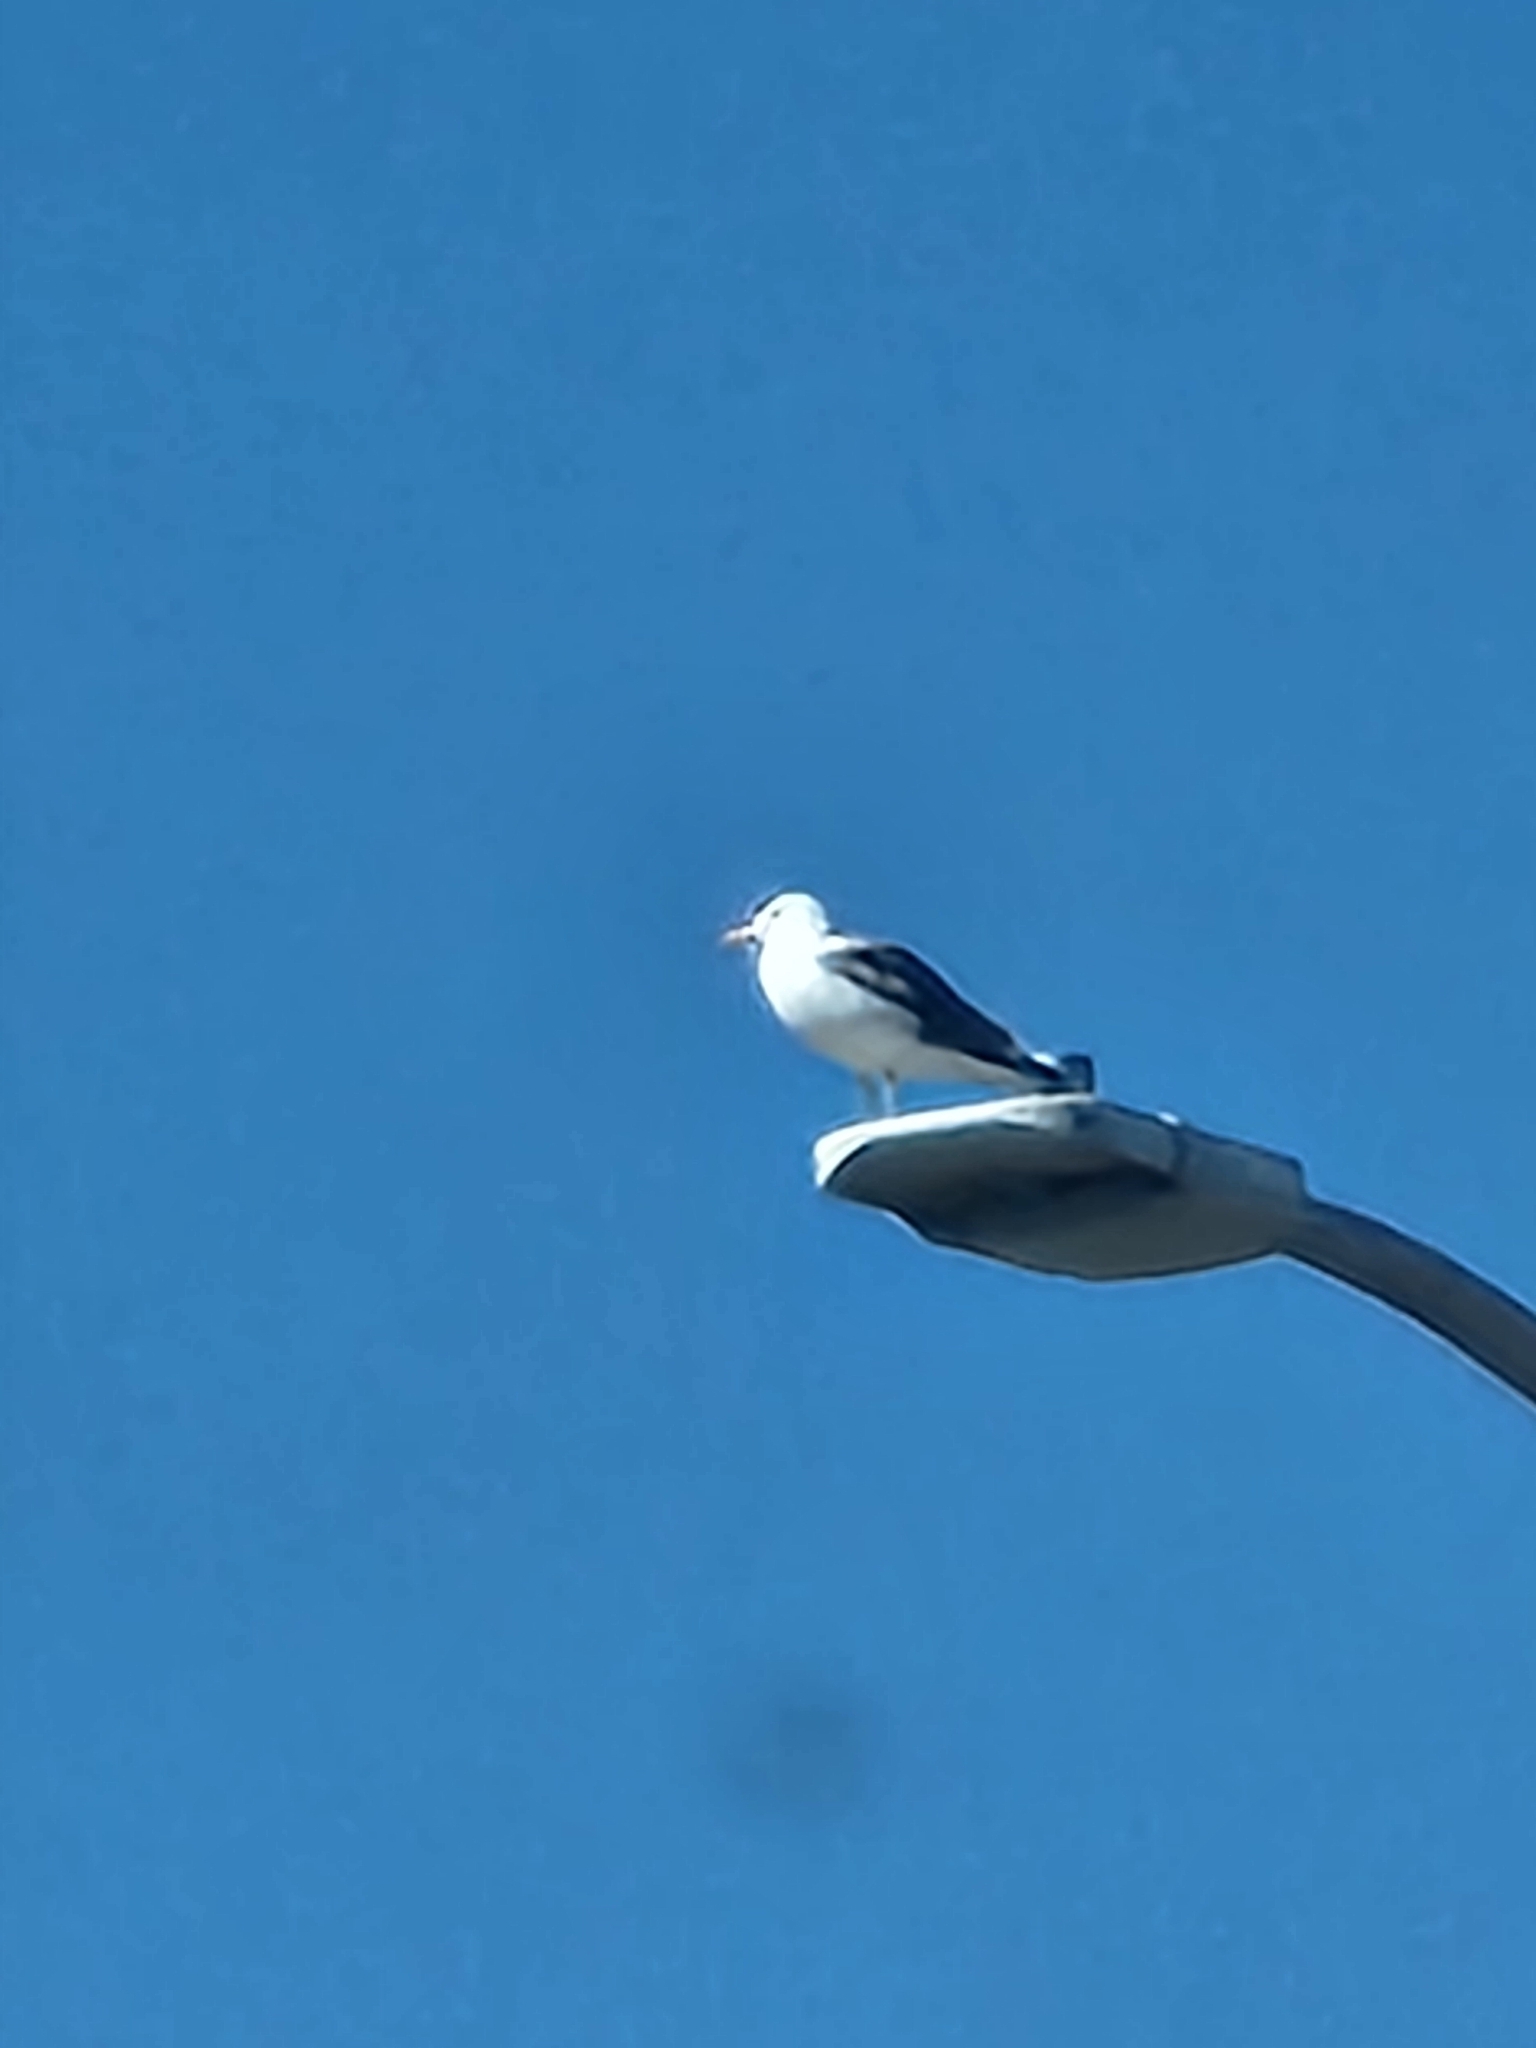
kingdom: Animalia
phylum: Chordata
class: Aves
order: Charadriiformes
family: Laridae
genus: Larus
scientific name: Larus occidentalis
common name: Western gull
